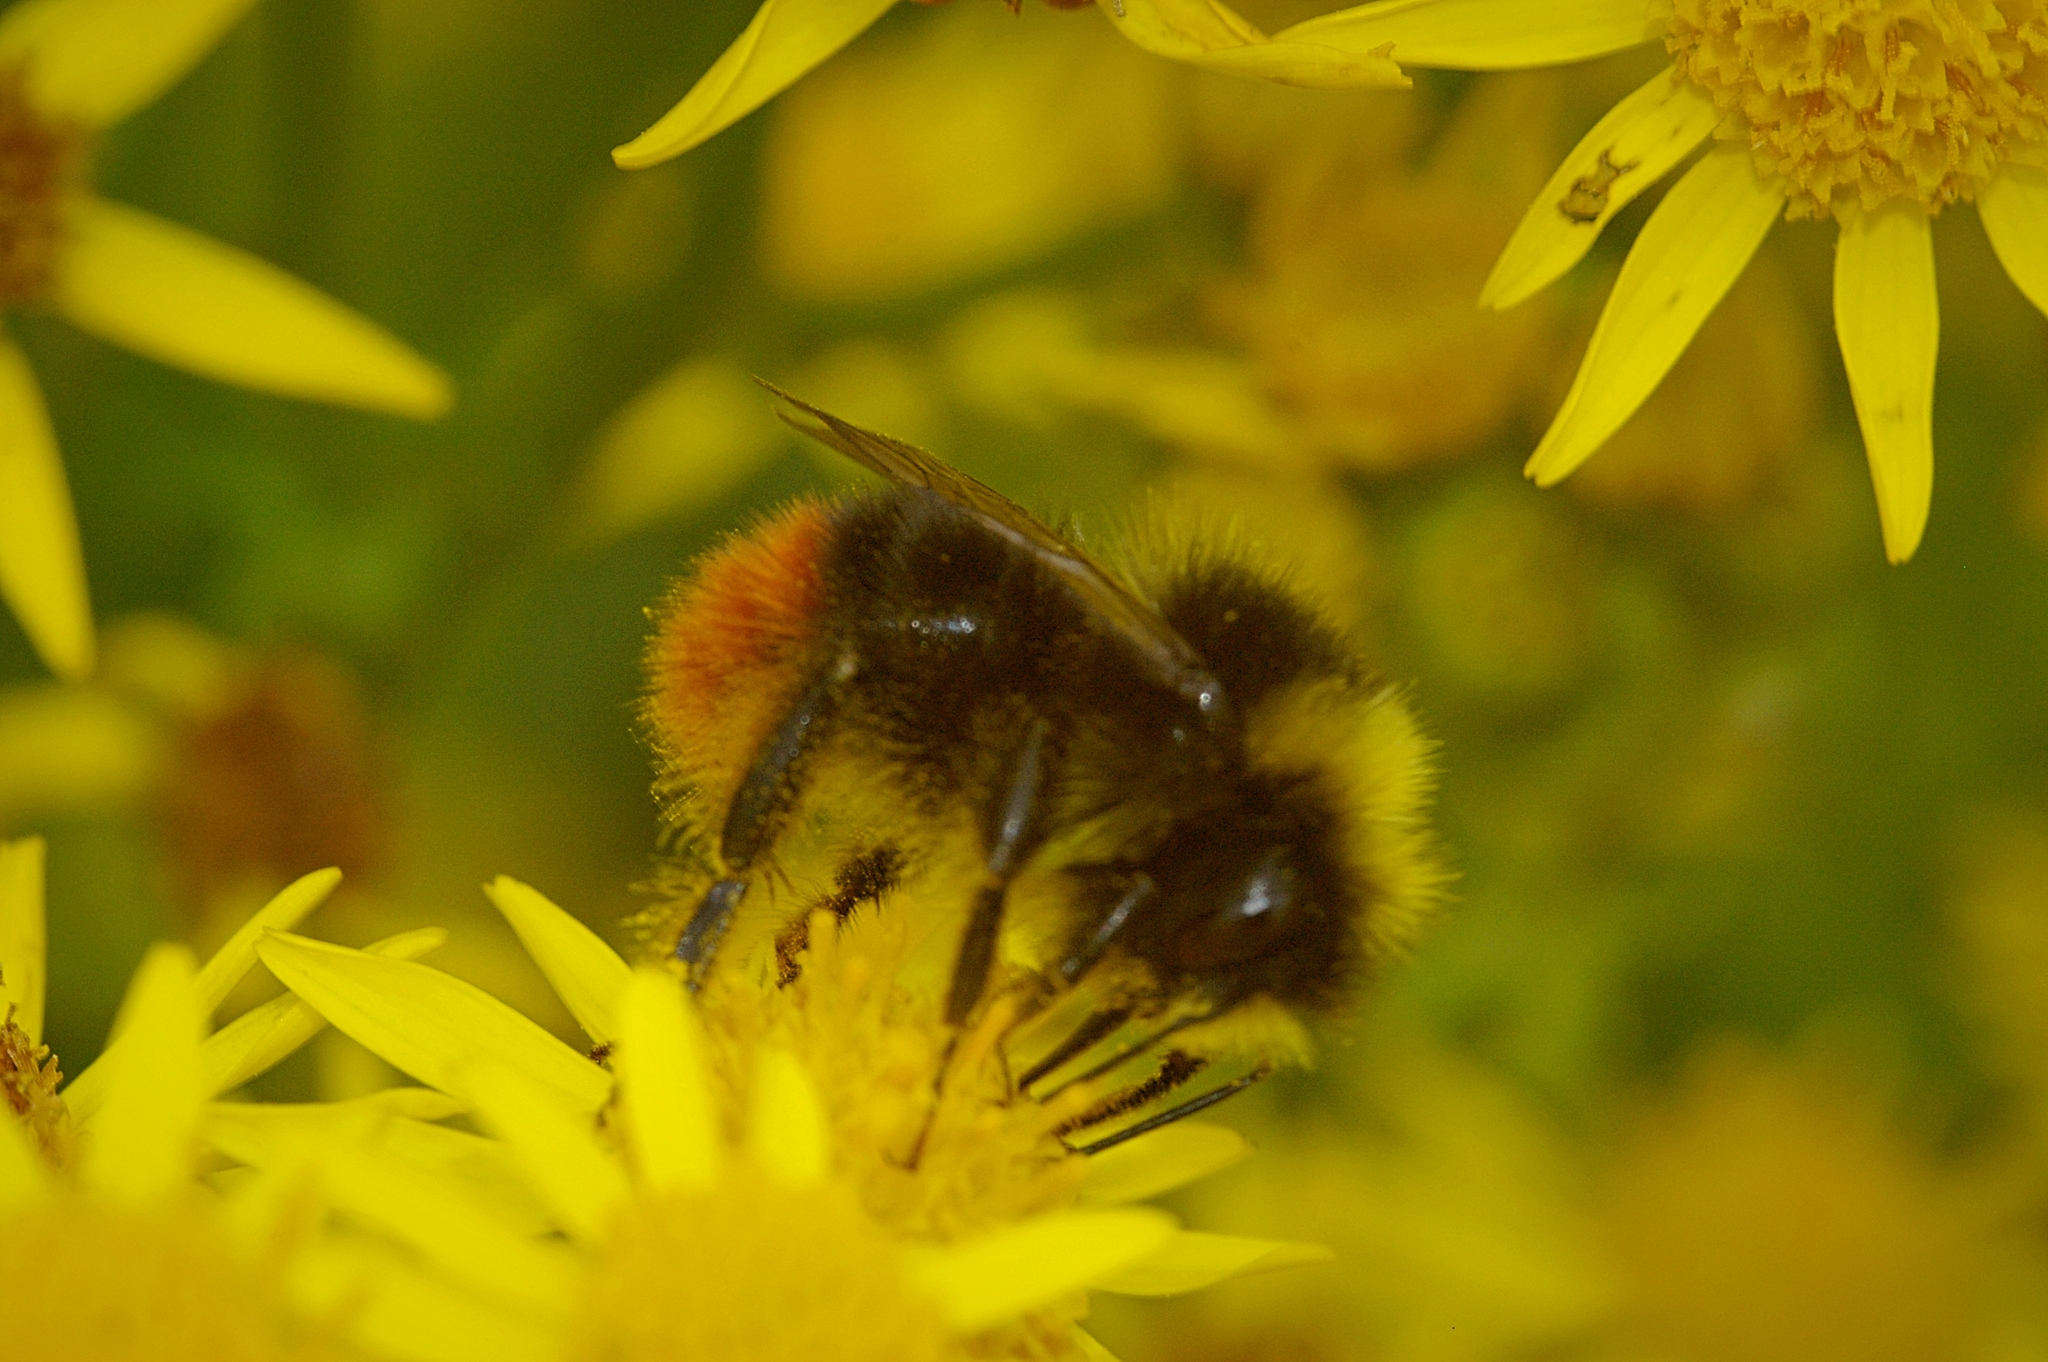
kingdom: Animalia
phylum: Arthropoda
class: Insecta
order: Hymenoptera
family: Apidae
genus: Bombus
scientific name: Bombus lapidarius
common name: Large red-tailed humble-bee
